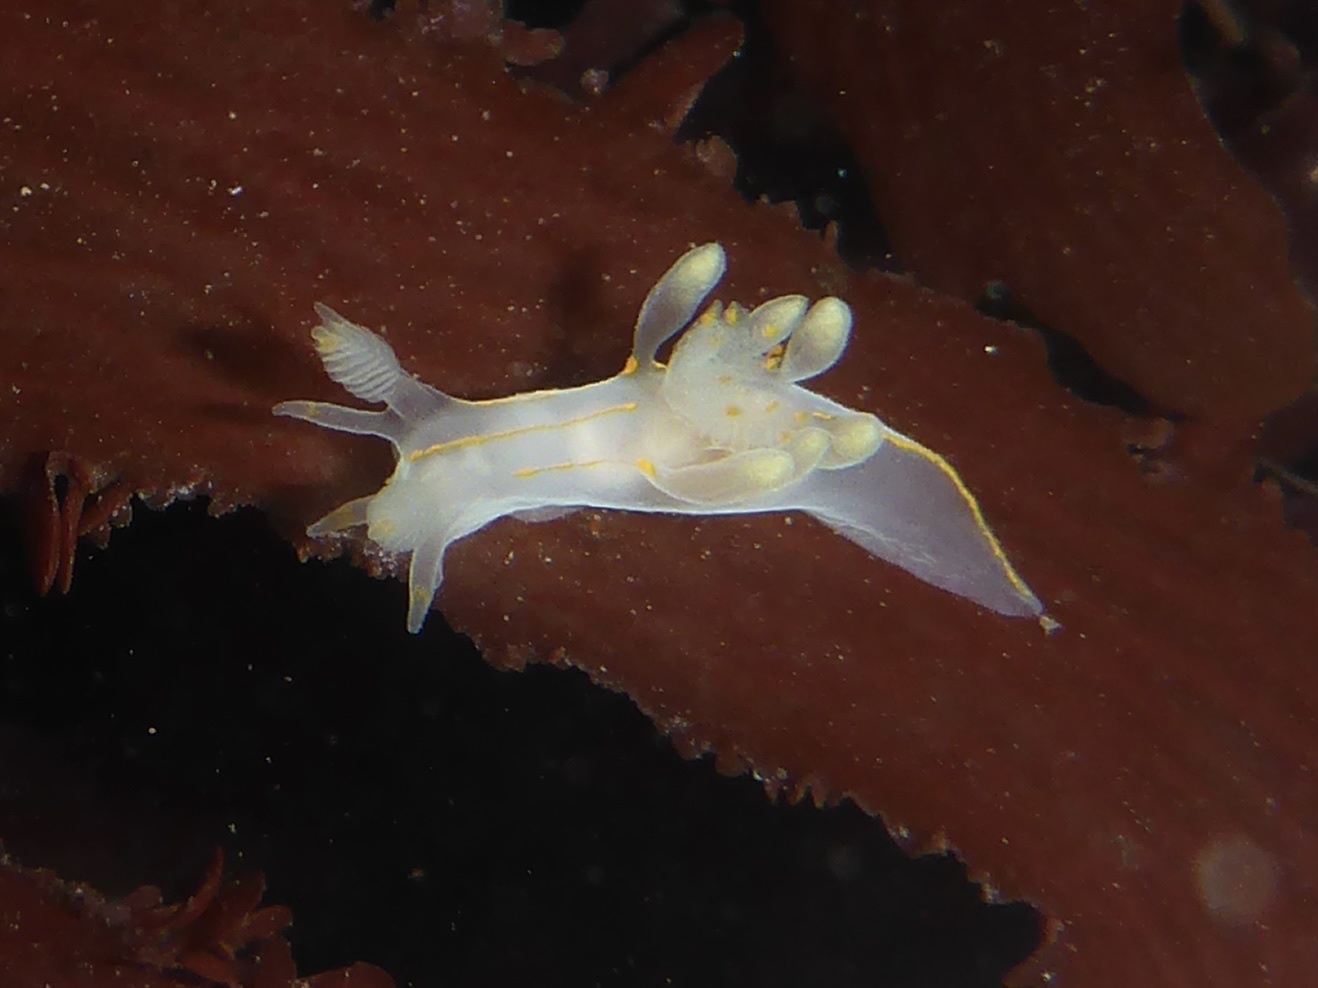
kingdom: Animalia
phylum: Mollusca
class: Gastropoda
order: Nudibranchia
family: Goniodorididae
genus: Ancula
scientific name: Ancula pacifica
